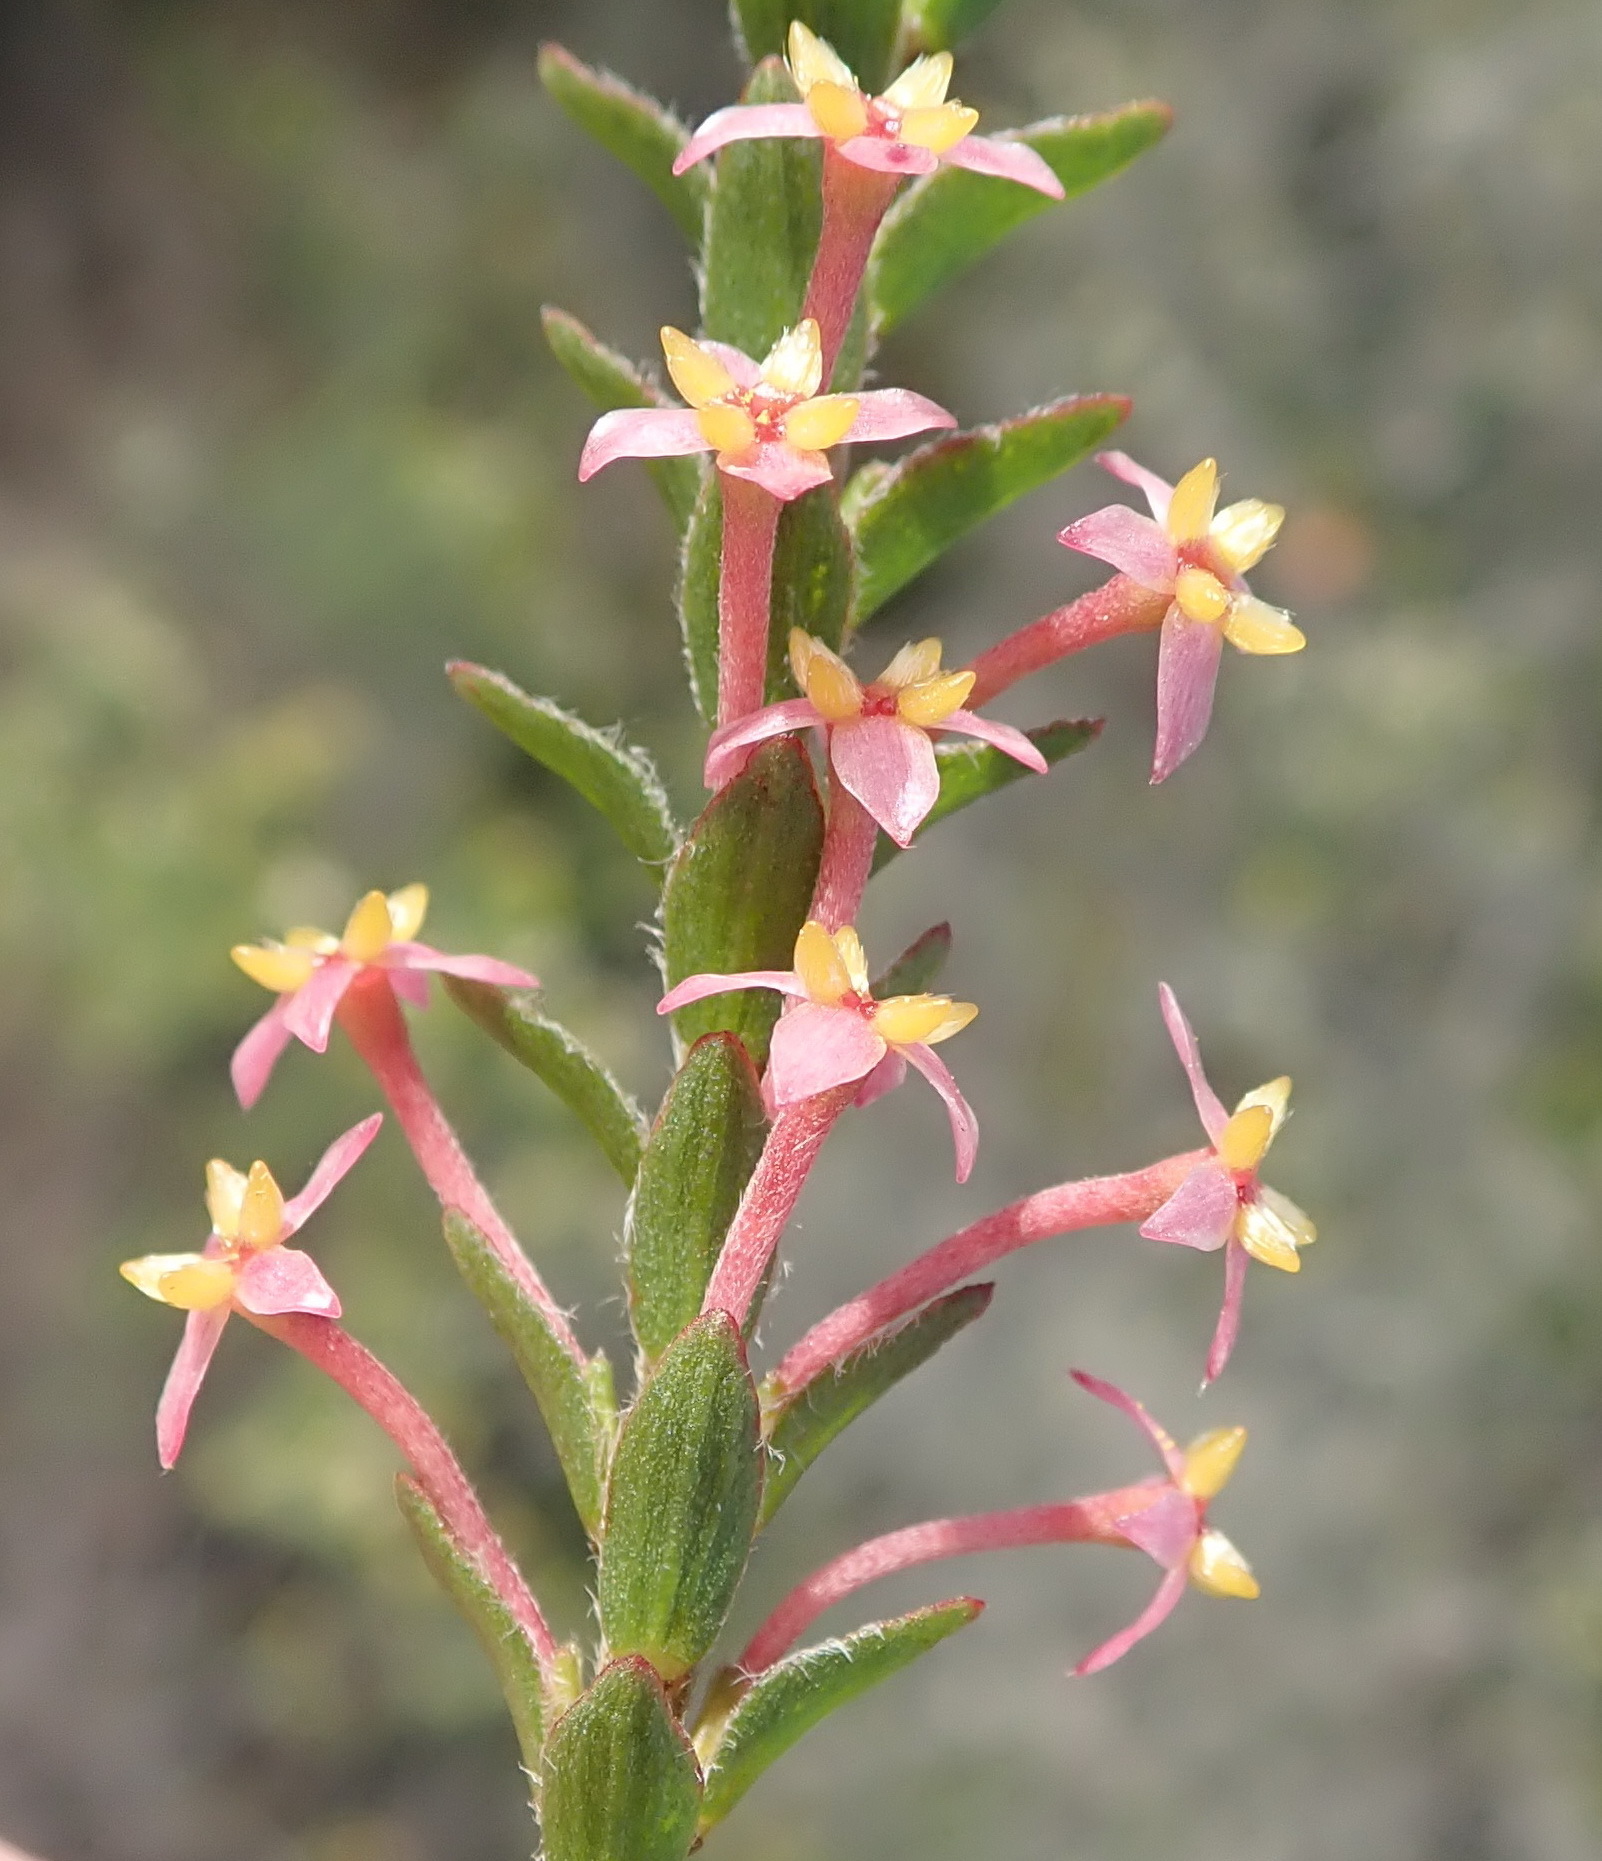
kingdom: Plantae
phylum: Tracheophyta
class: Magnoliopsida
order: Malvales
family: Thymelaeaceae
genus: Struthiola
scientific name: Struthiola striata
